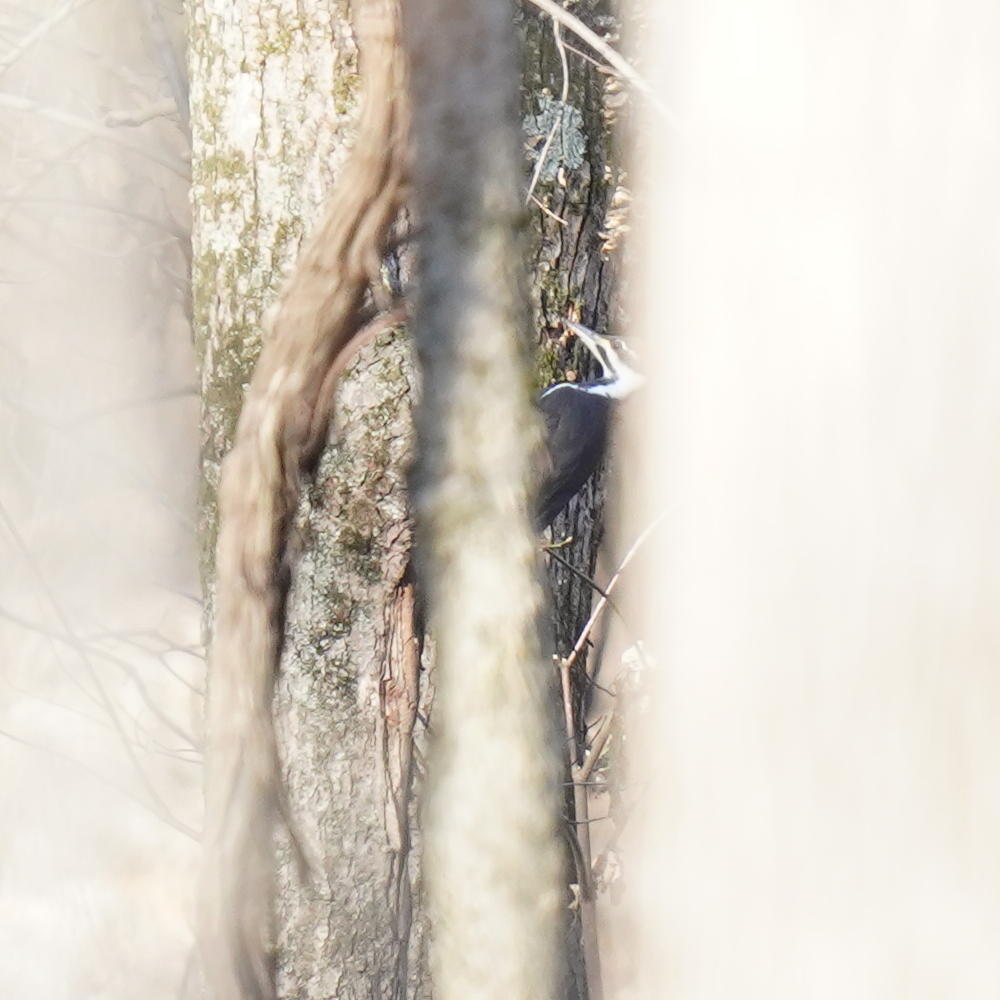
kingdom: Animalia
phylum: Chordata
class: Aves
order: Piciformes
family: Picidae
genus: Dryocopus
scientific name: Dryocopus pileatus
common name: Pileated woodpecker
